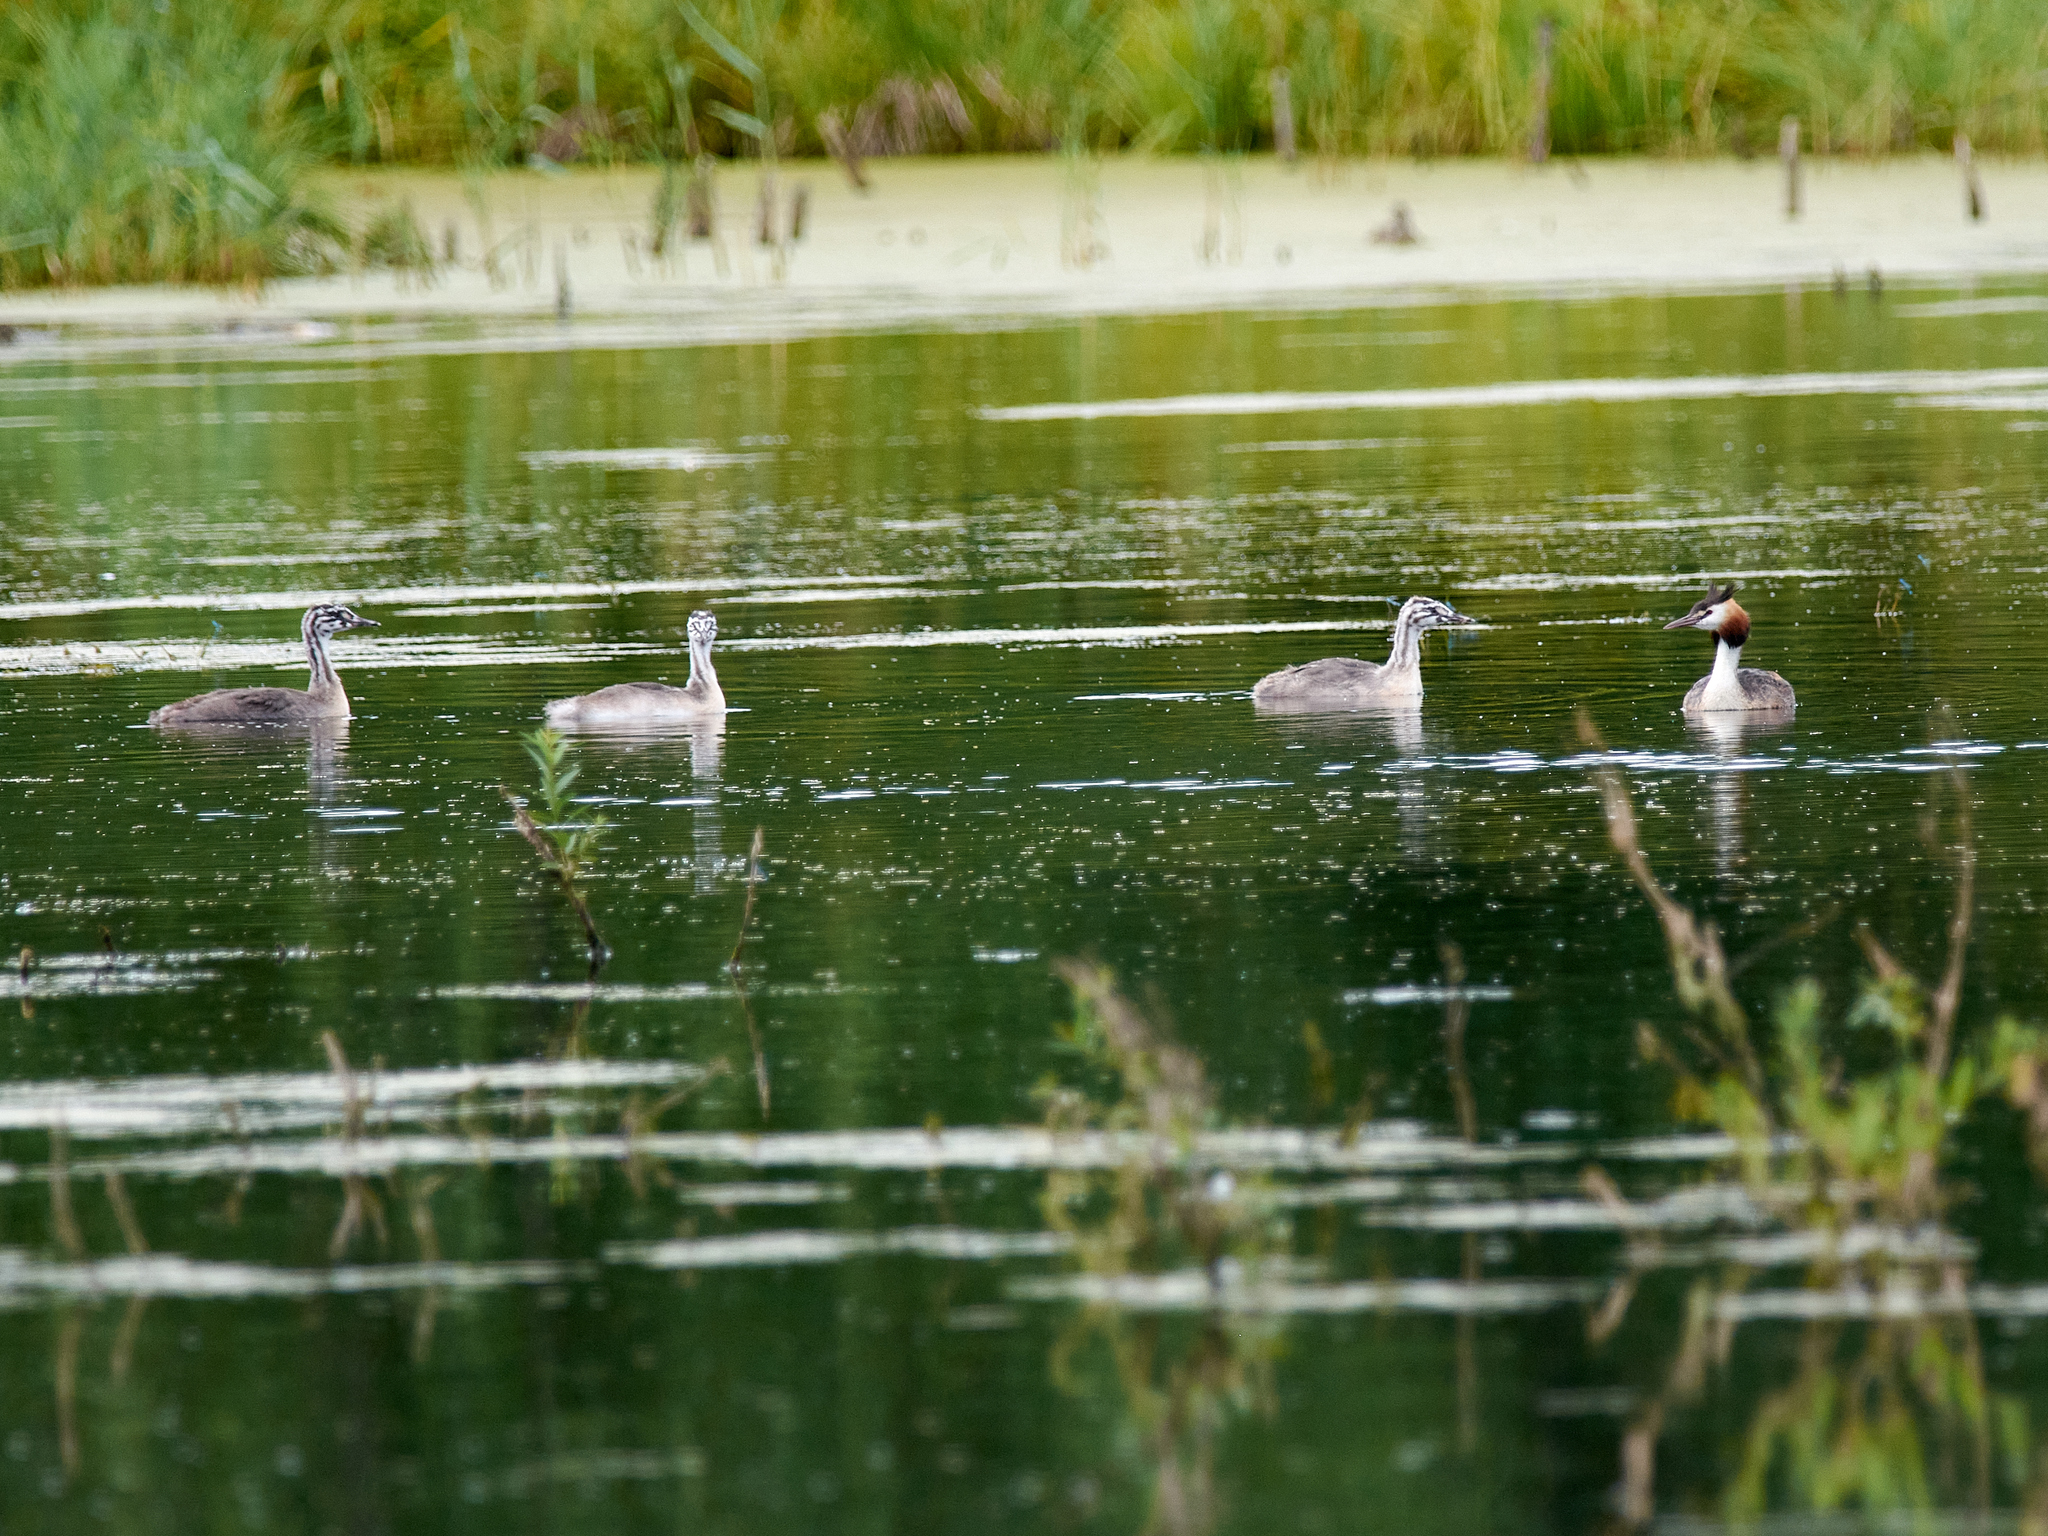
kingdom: Animalia
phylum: Chordata
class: Aves
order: Podicipediformes
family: Podicipedidae
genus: Podiceps
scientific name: Podiceps cristatus
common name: Great crested grebe
